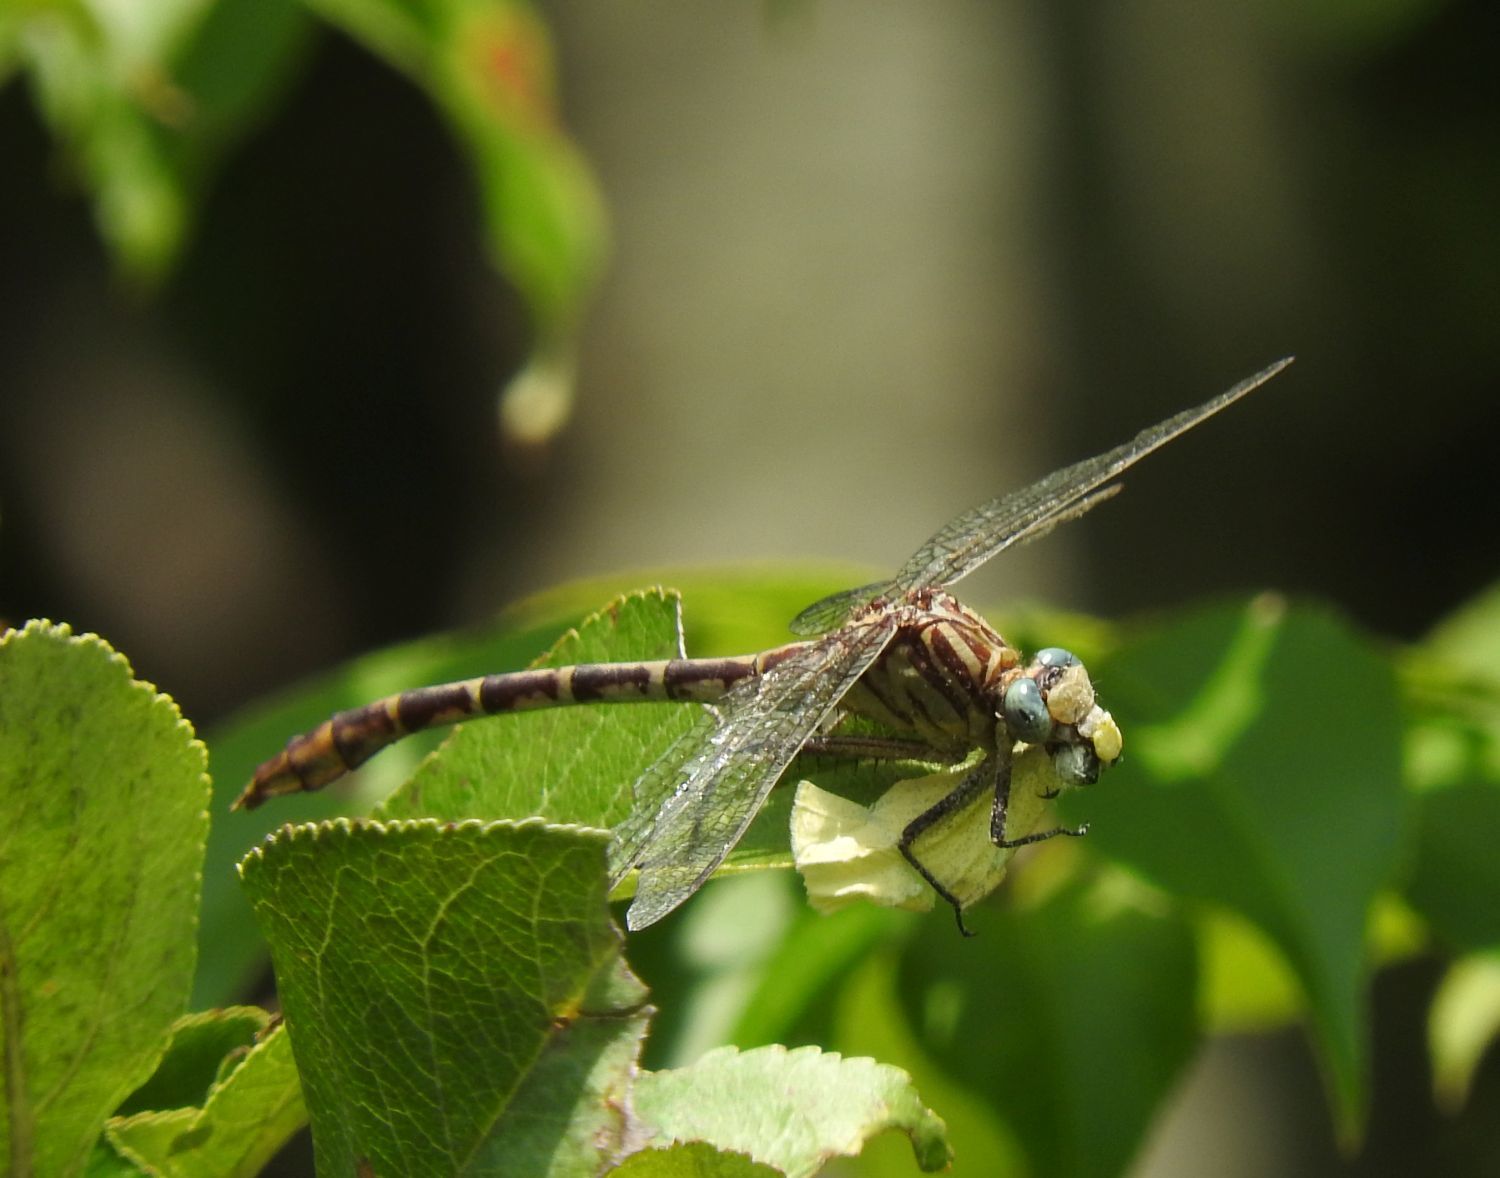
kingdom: Animalia
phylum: Arthropoda
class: Insecta
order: Odonata
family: Gomphidae
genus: Dromogomphus
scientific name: Dromogomphus spoliatus
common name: Flag-tailed spinyleg
